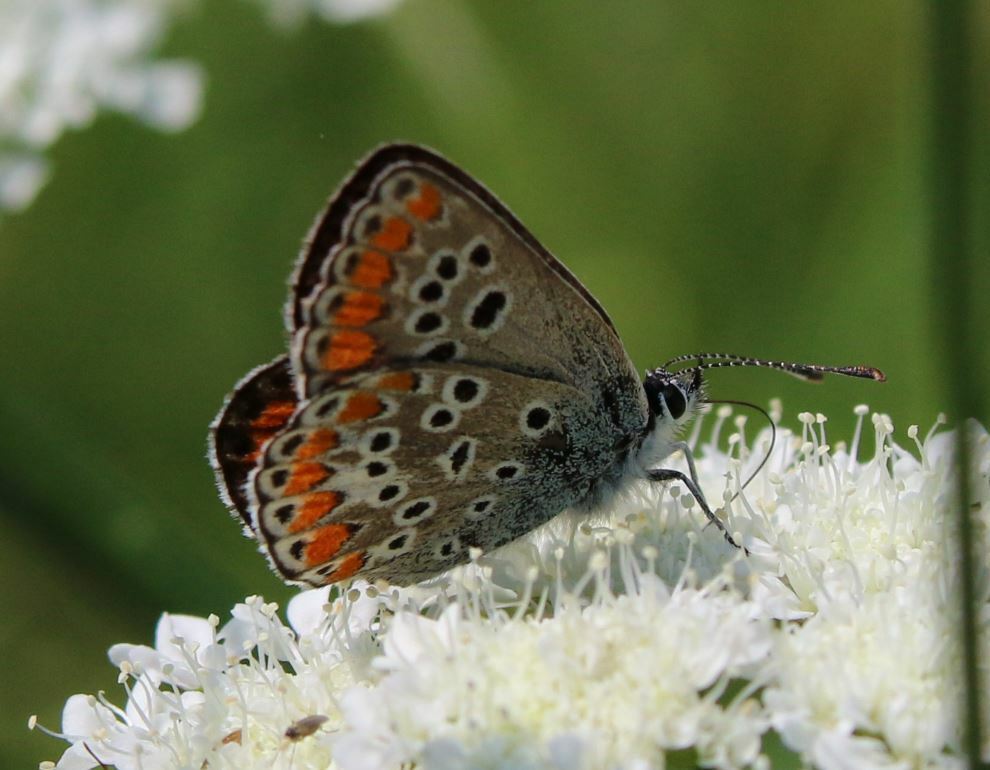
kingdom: Animalia
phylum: Arthropoda
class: Insecta
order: Lepidoptera
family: Lycaenidae
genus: Aricia
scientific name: Aricia agestis
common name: Brown argus
